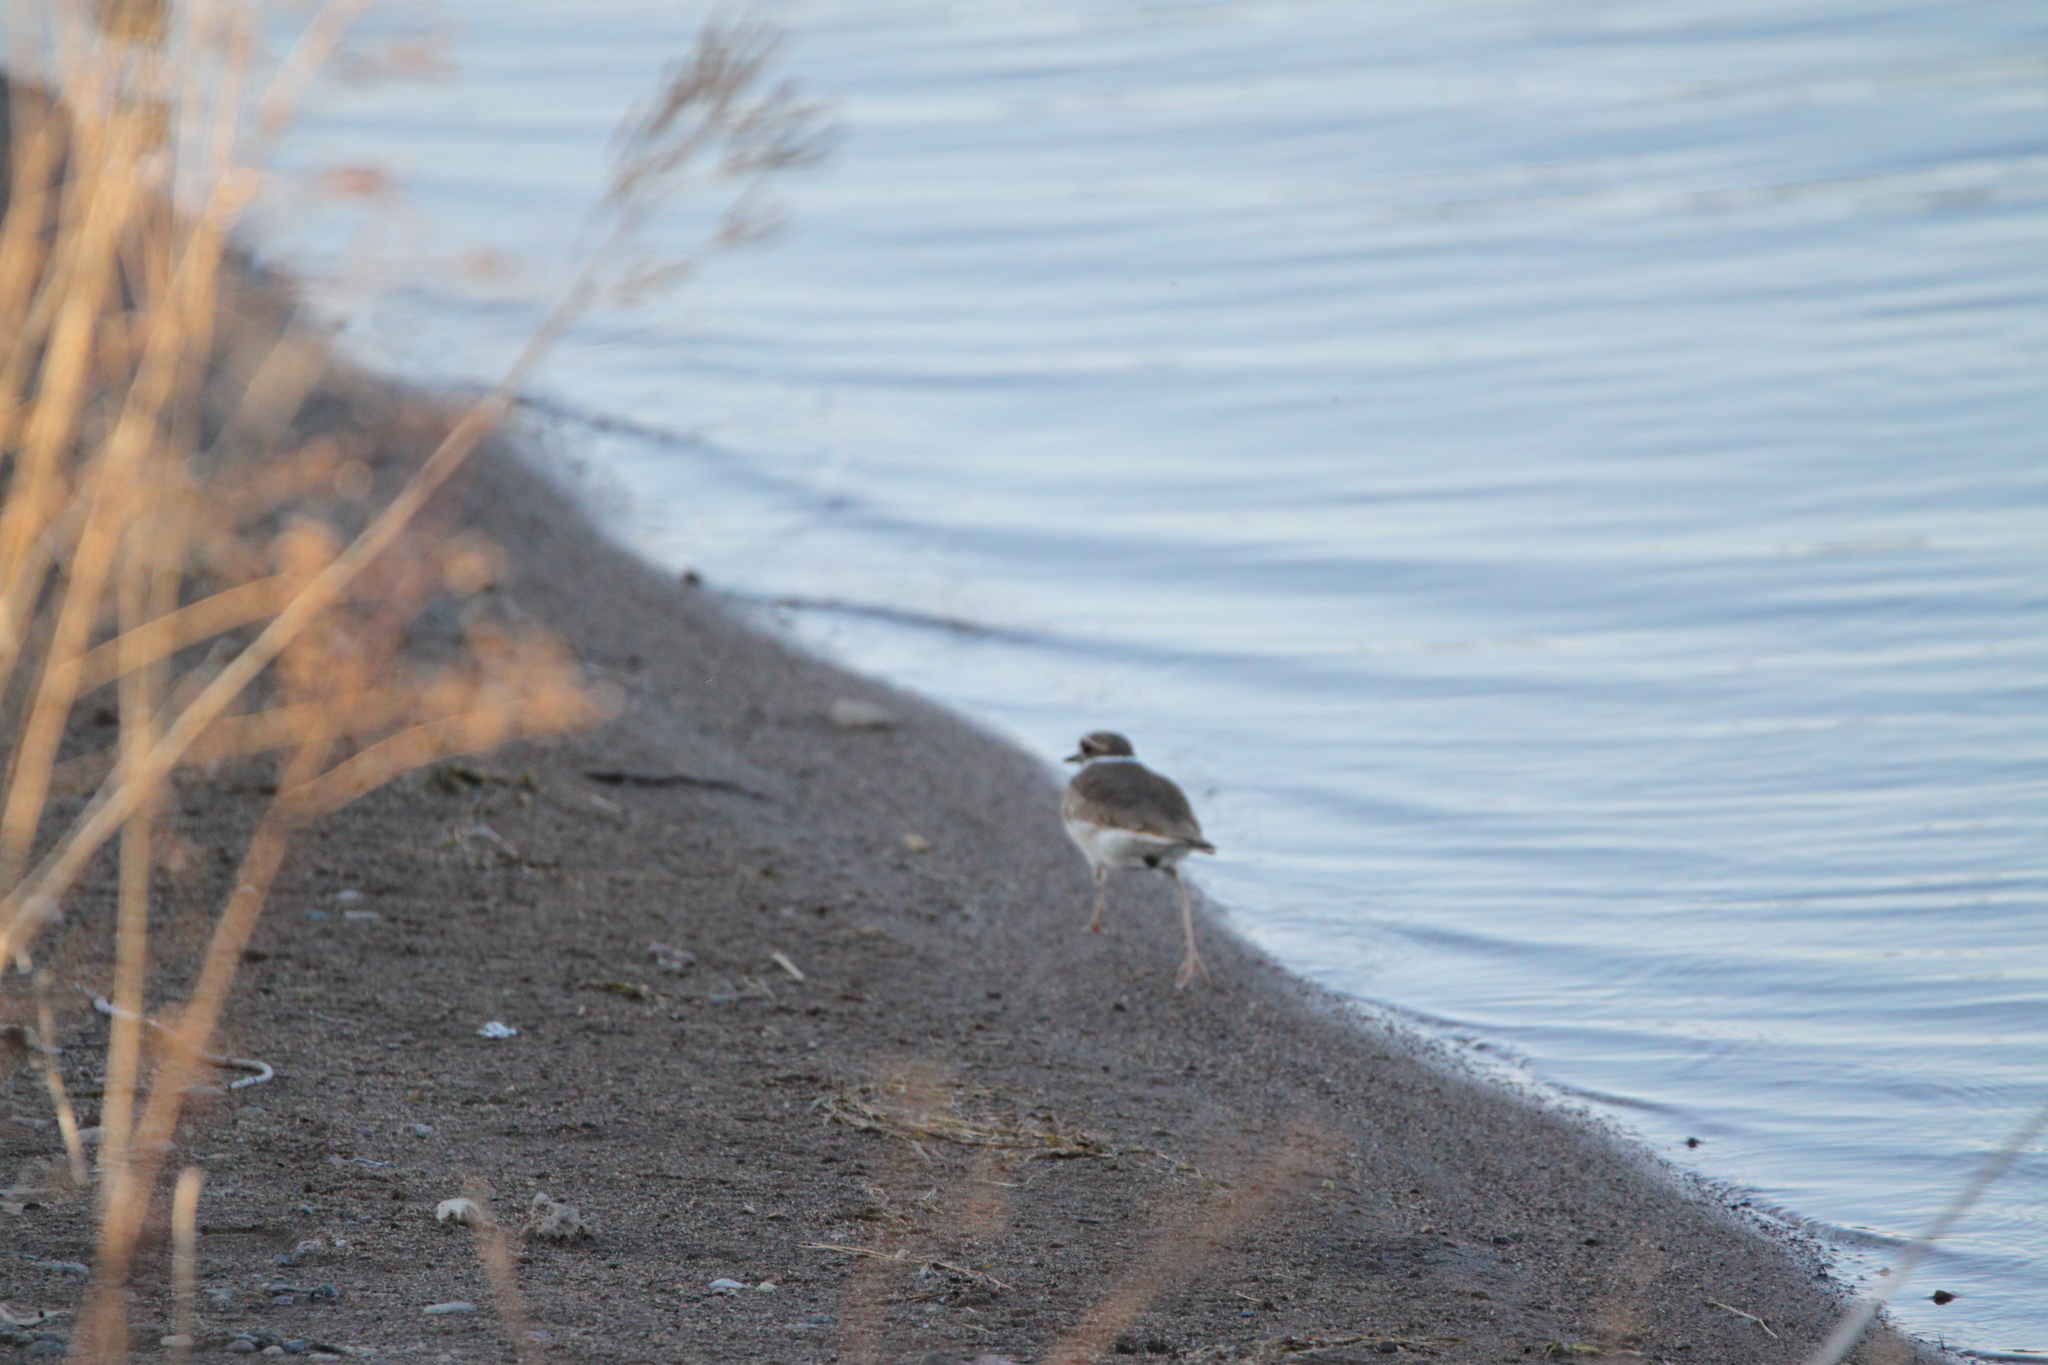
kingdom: Animalia
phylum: Chordata
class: Aves
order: Charadriiformes
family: Charadriidae
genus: Charadrius
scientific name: Charadrius vociferus
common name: Killdeer
